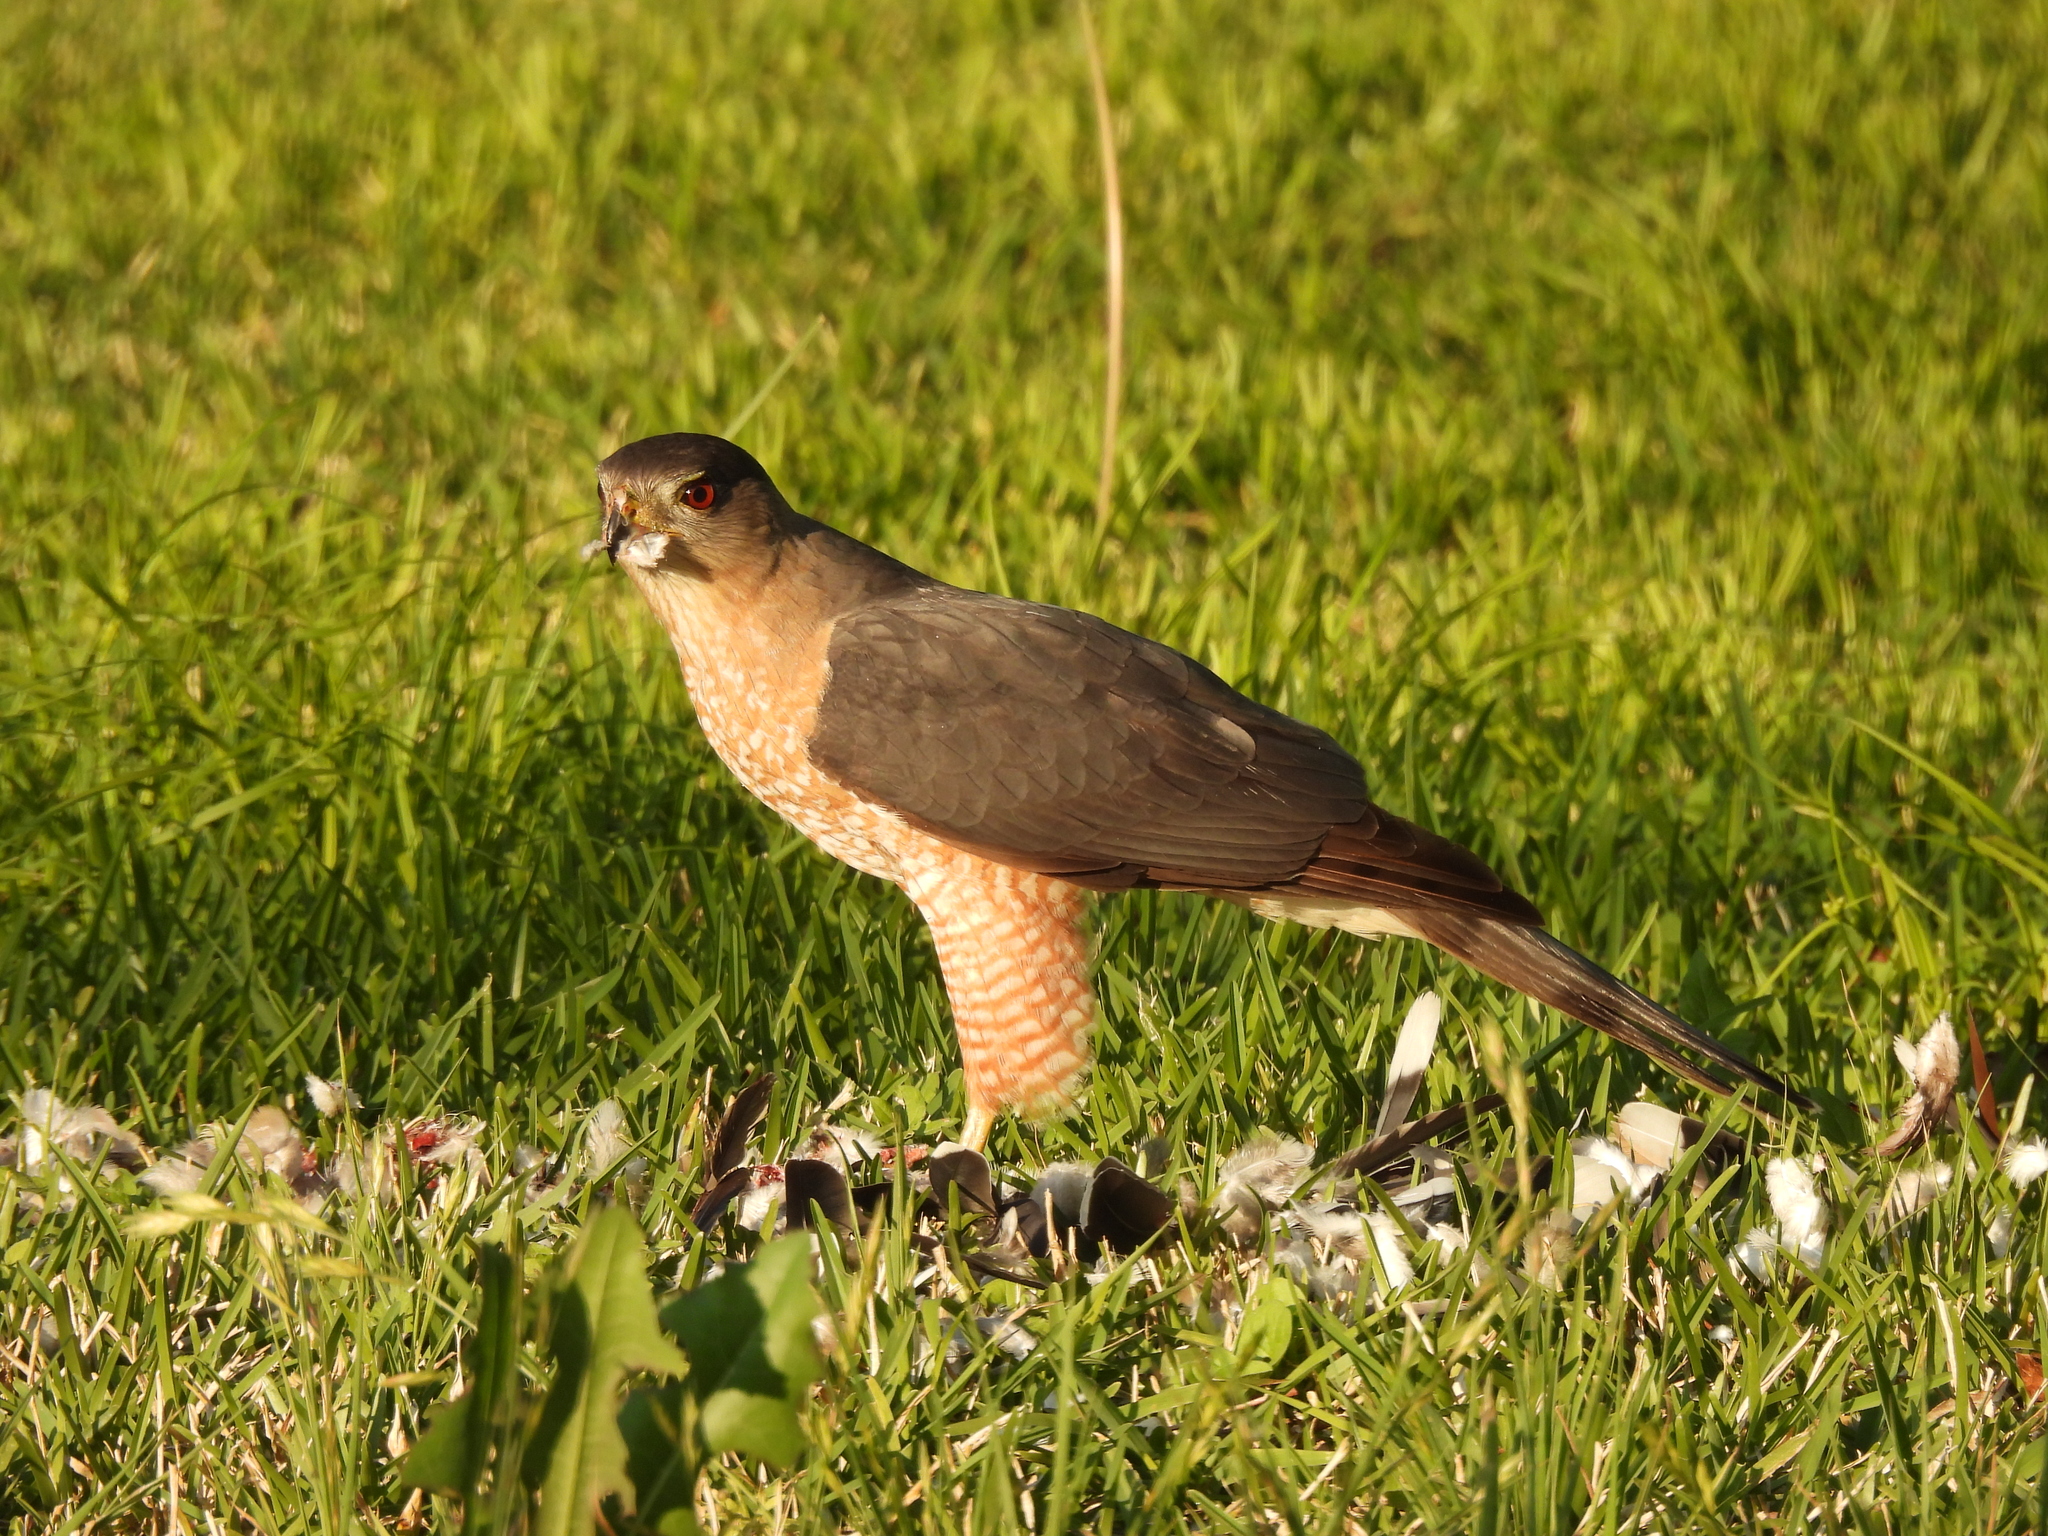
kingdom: Animalia
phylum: Chordata
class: Aves
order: Accipitriformes
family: Accipitridae
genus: Accipiter
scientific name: Accipiter cooperii
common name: Cooper's hawk
